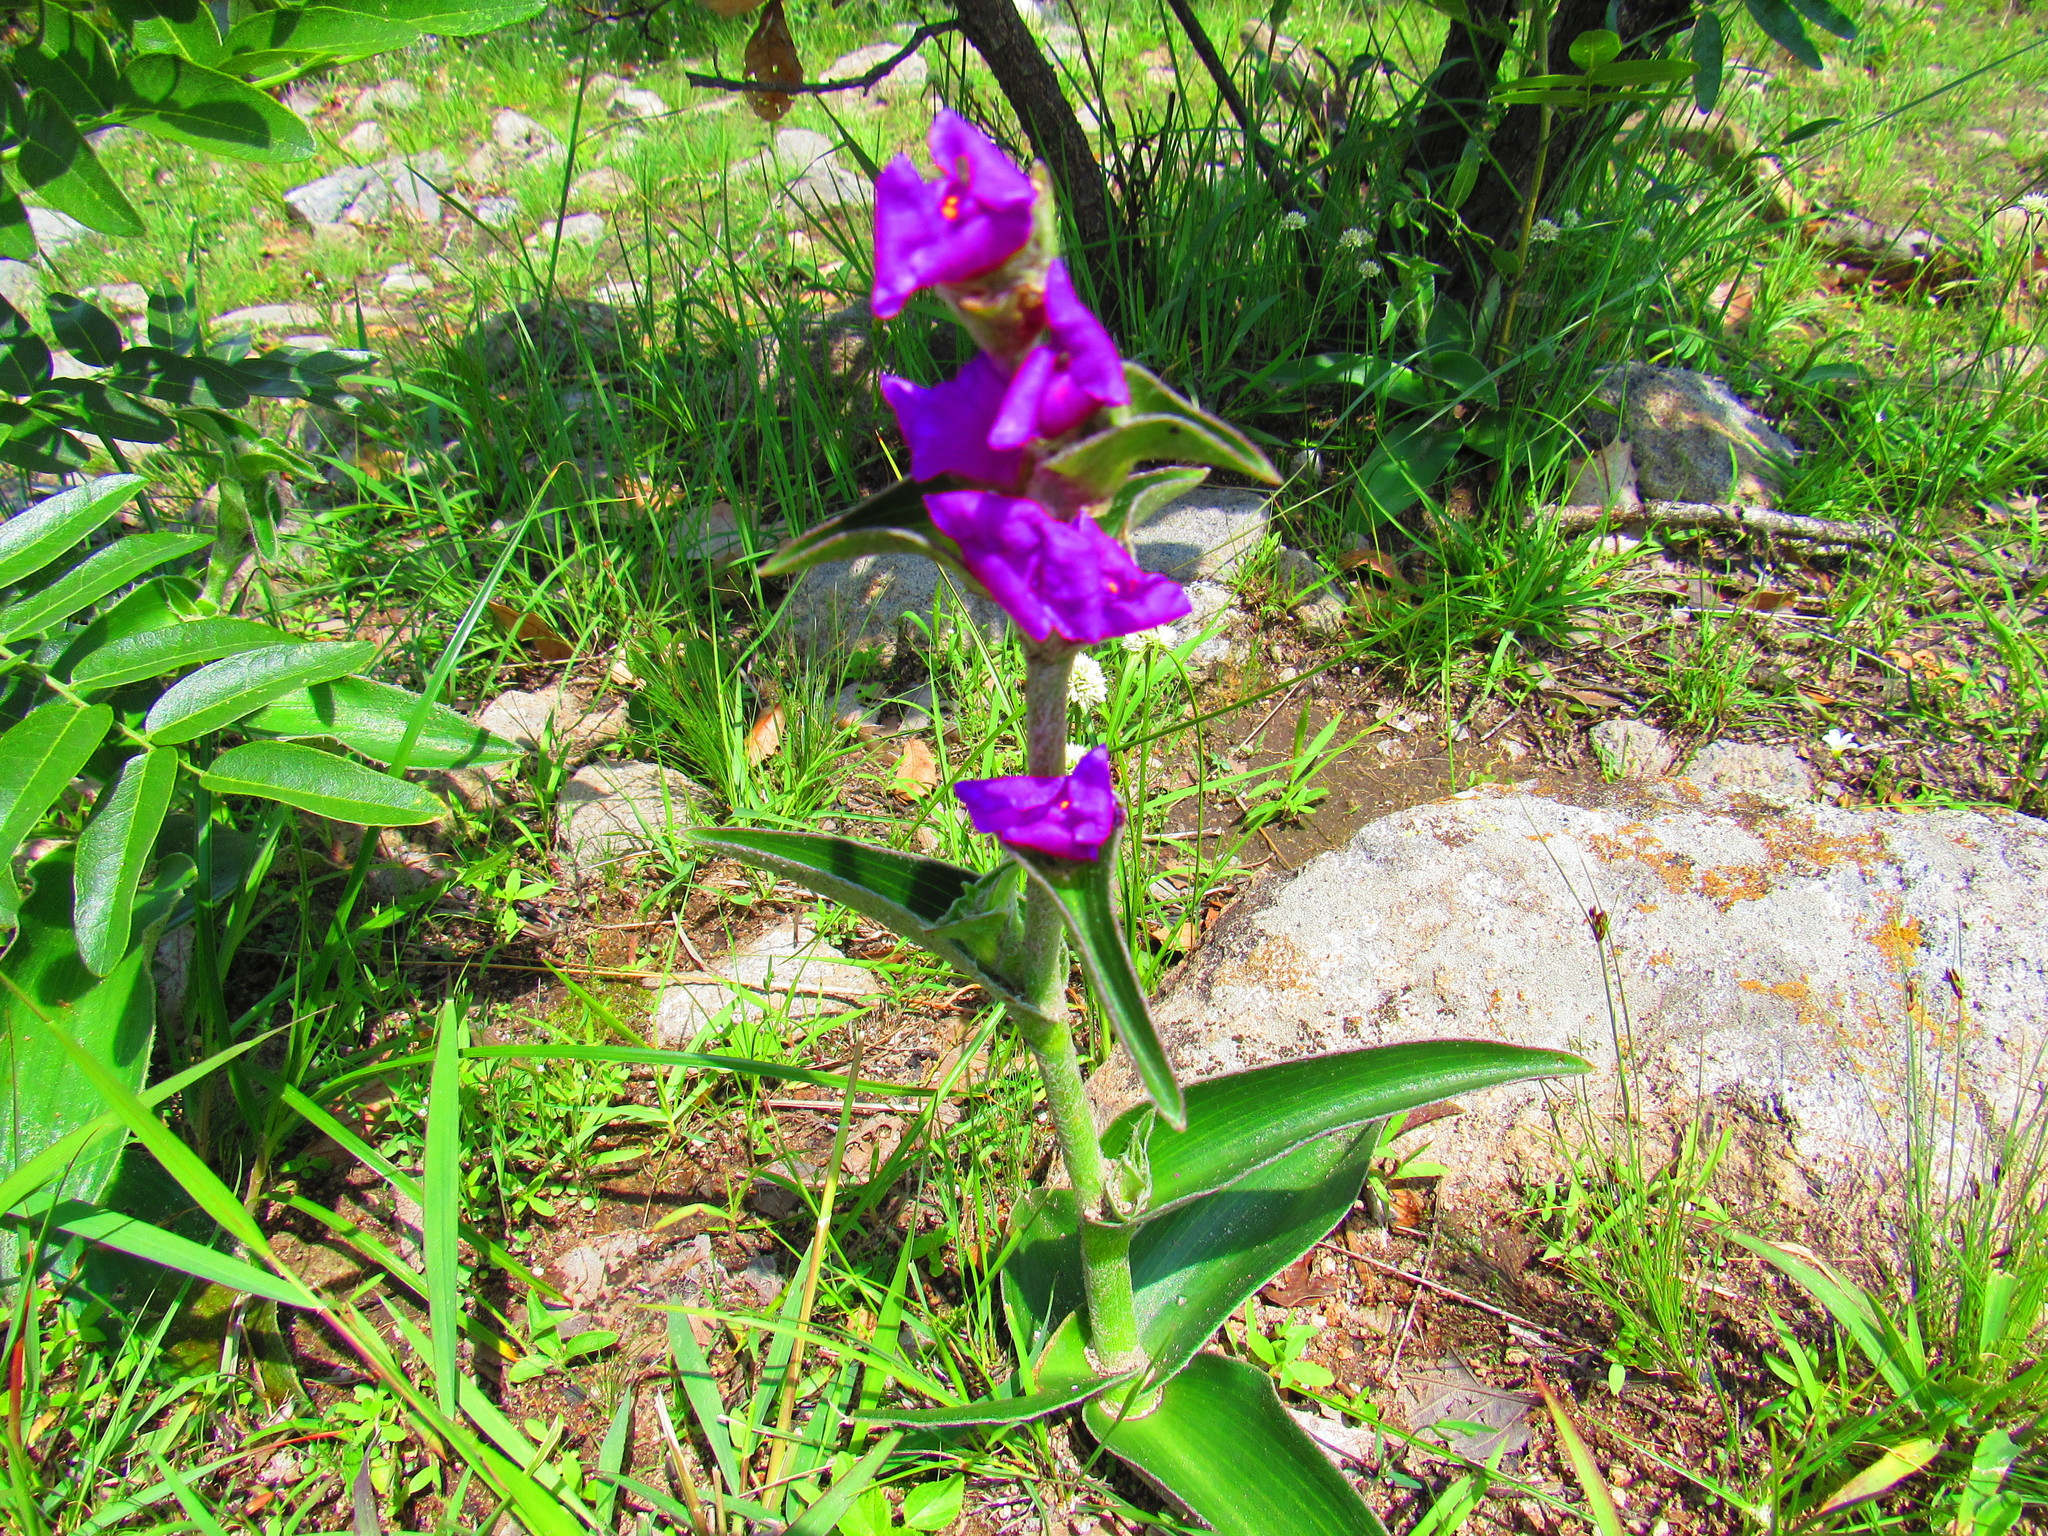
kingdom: Plantae
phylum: Tracheophyta
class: Liliopsida
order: Commelinales
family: Commelinaceae
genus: Tradescantia
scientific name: Tradescantia crassifolia
